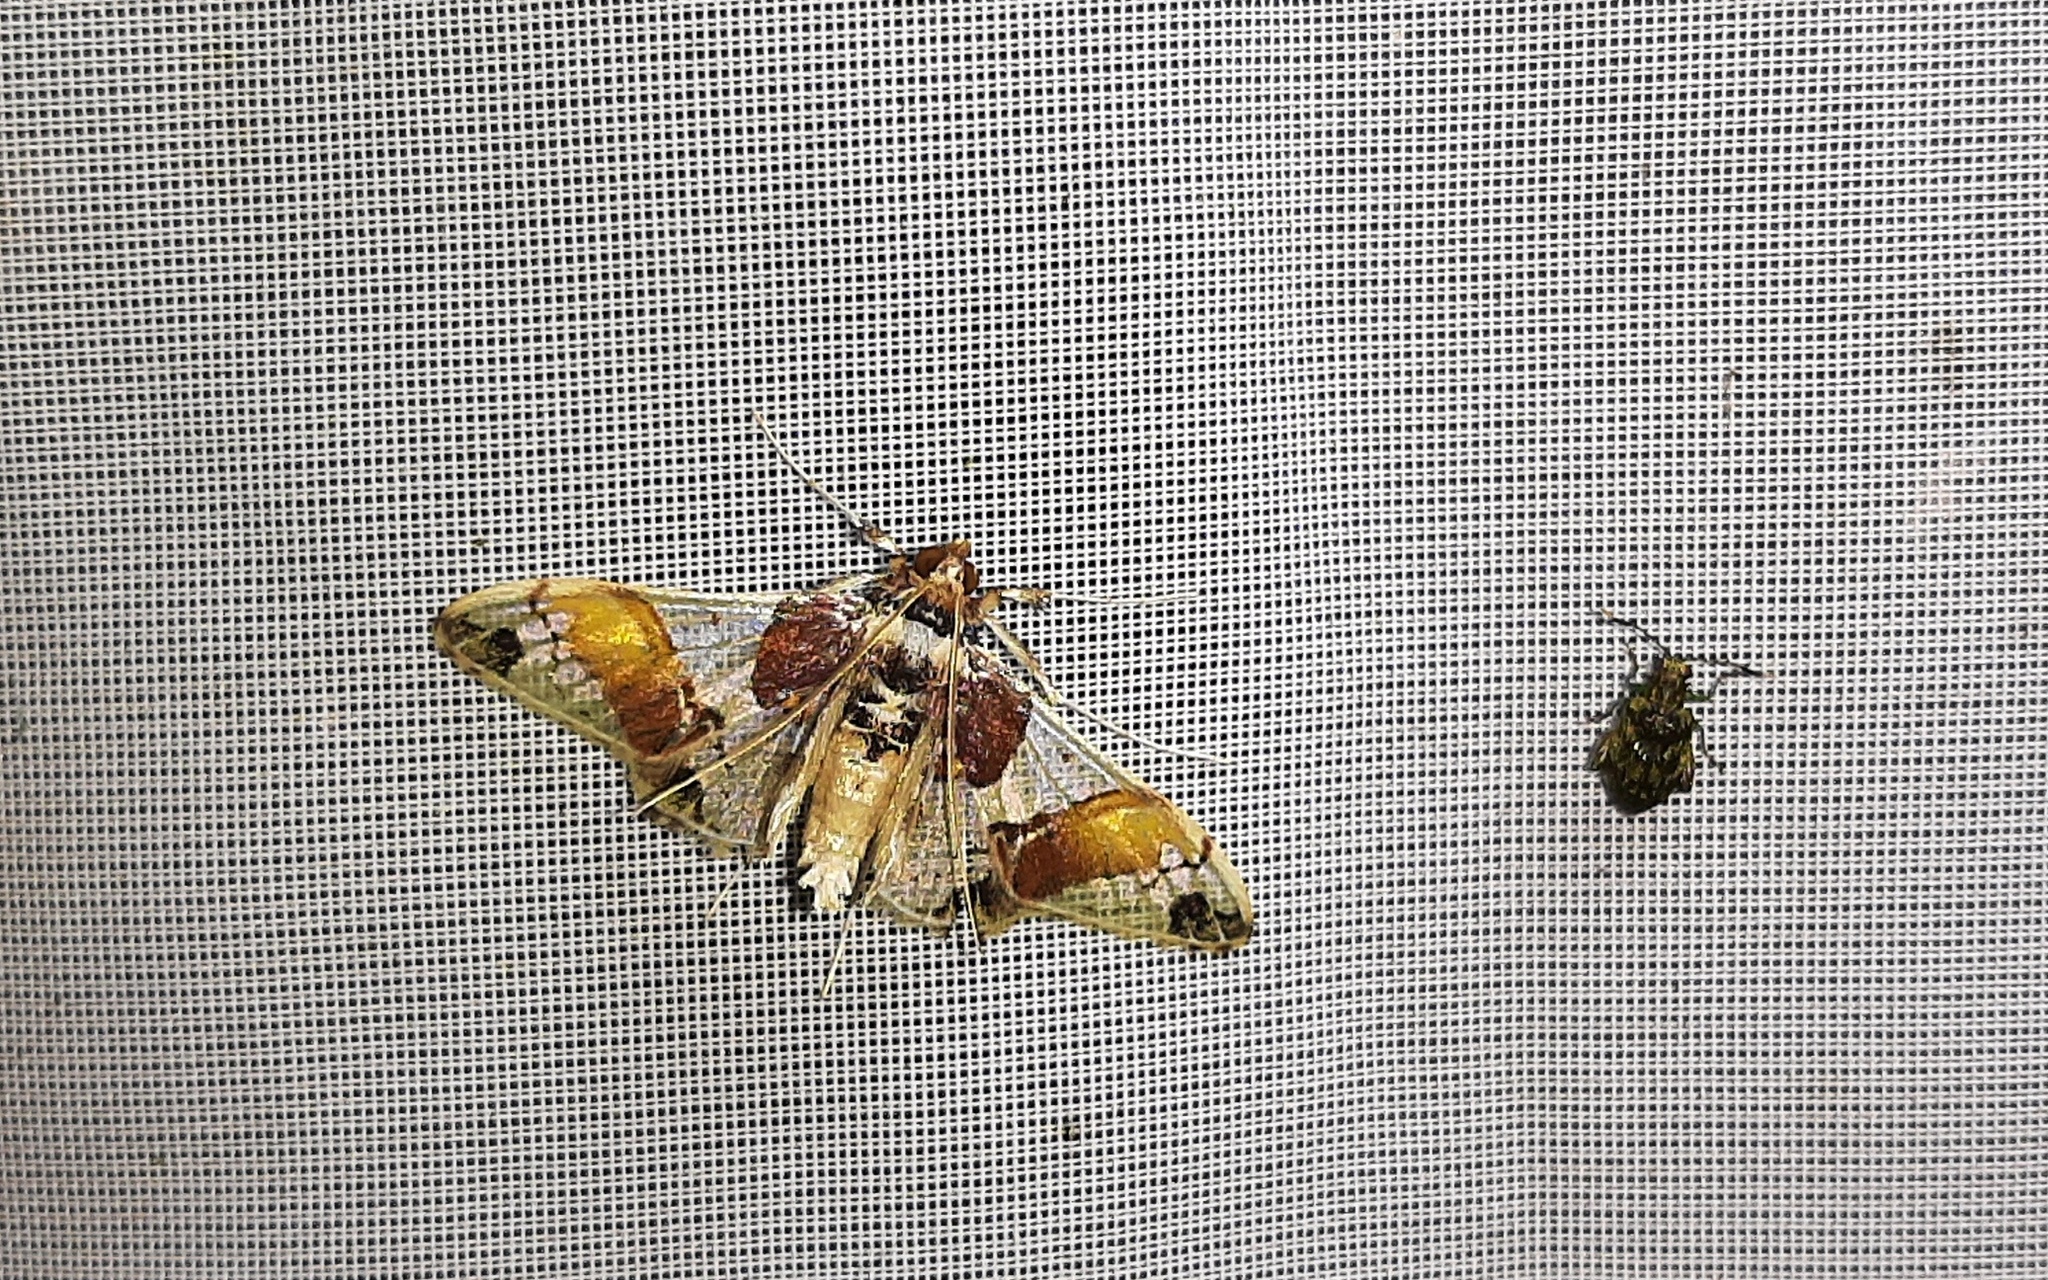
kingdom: Animalia
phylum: Arthropoda
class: Insecta
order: Lepidoptera
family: Crambidae
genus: Syngamilyta
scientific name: Syngamilyta apicolor
